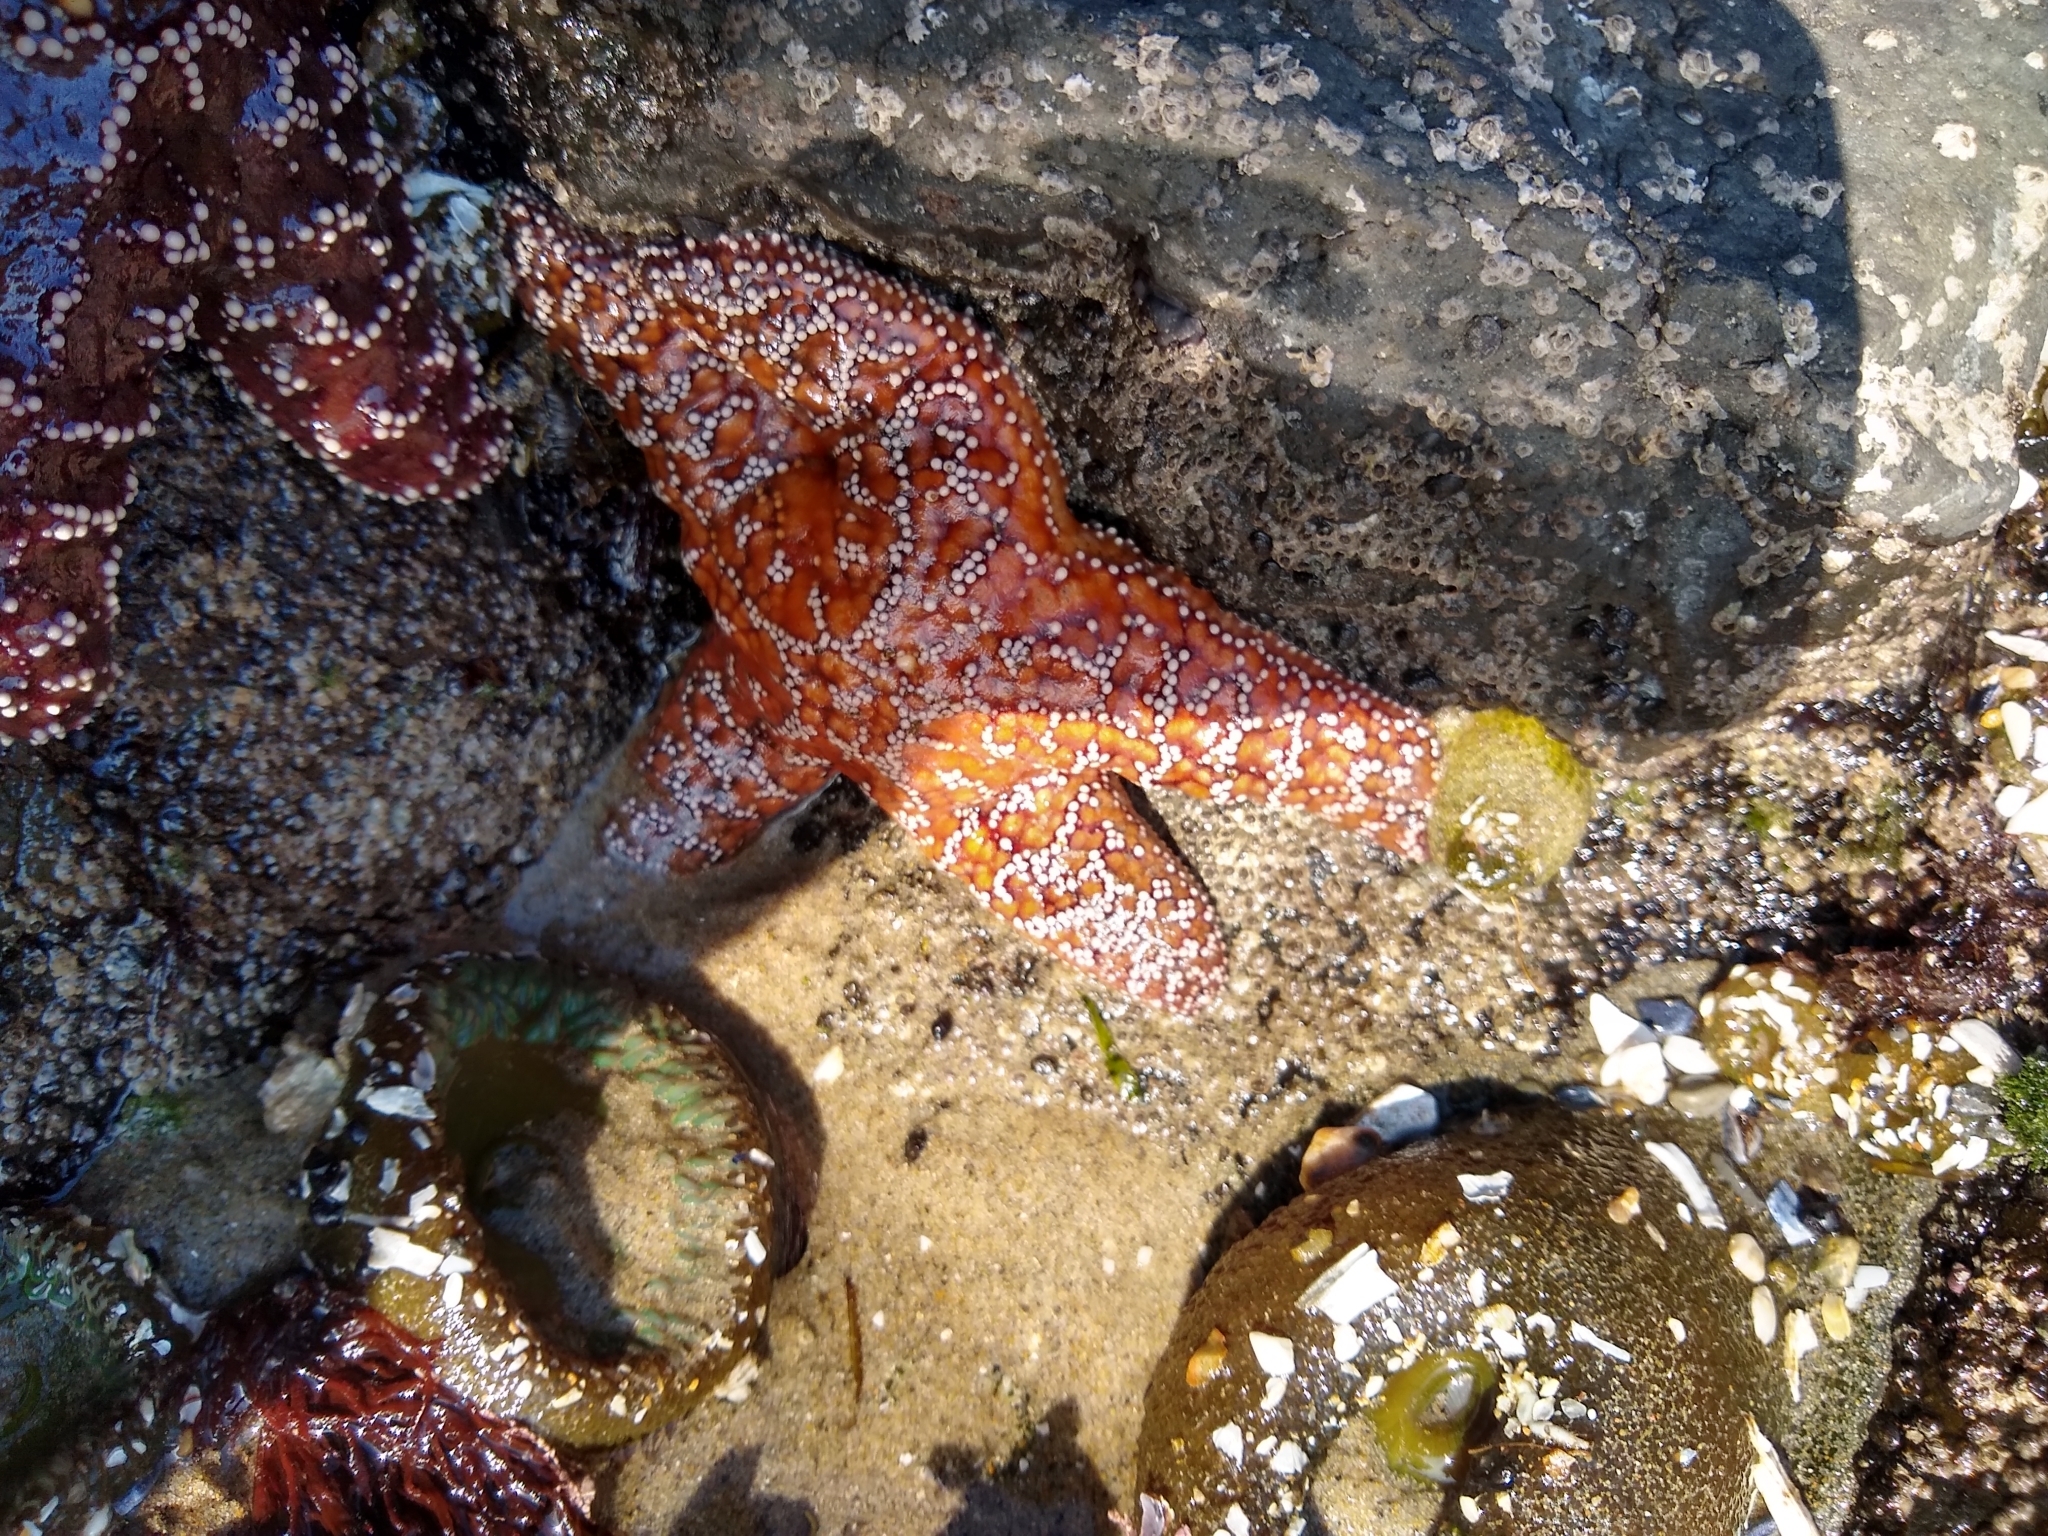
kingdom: Animalia
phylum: Echinodermata
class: Asteroidea
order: Forcipulatida
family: Asteriidae
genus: Pisaster
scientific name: Pisaster ochraceus
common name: Ochre stars
